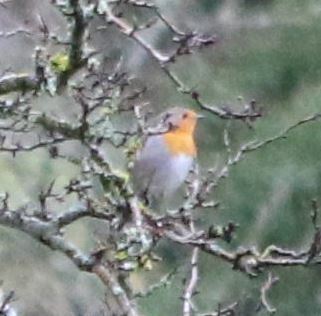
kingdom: Animalia
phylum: Chordata
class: Aves
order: Passeriformes
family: Muscicapidae
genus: Erithacus
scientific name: Erithacus rubecula
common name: European robin
